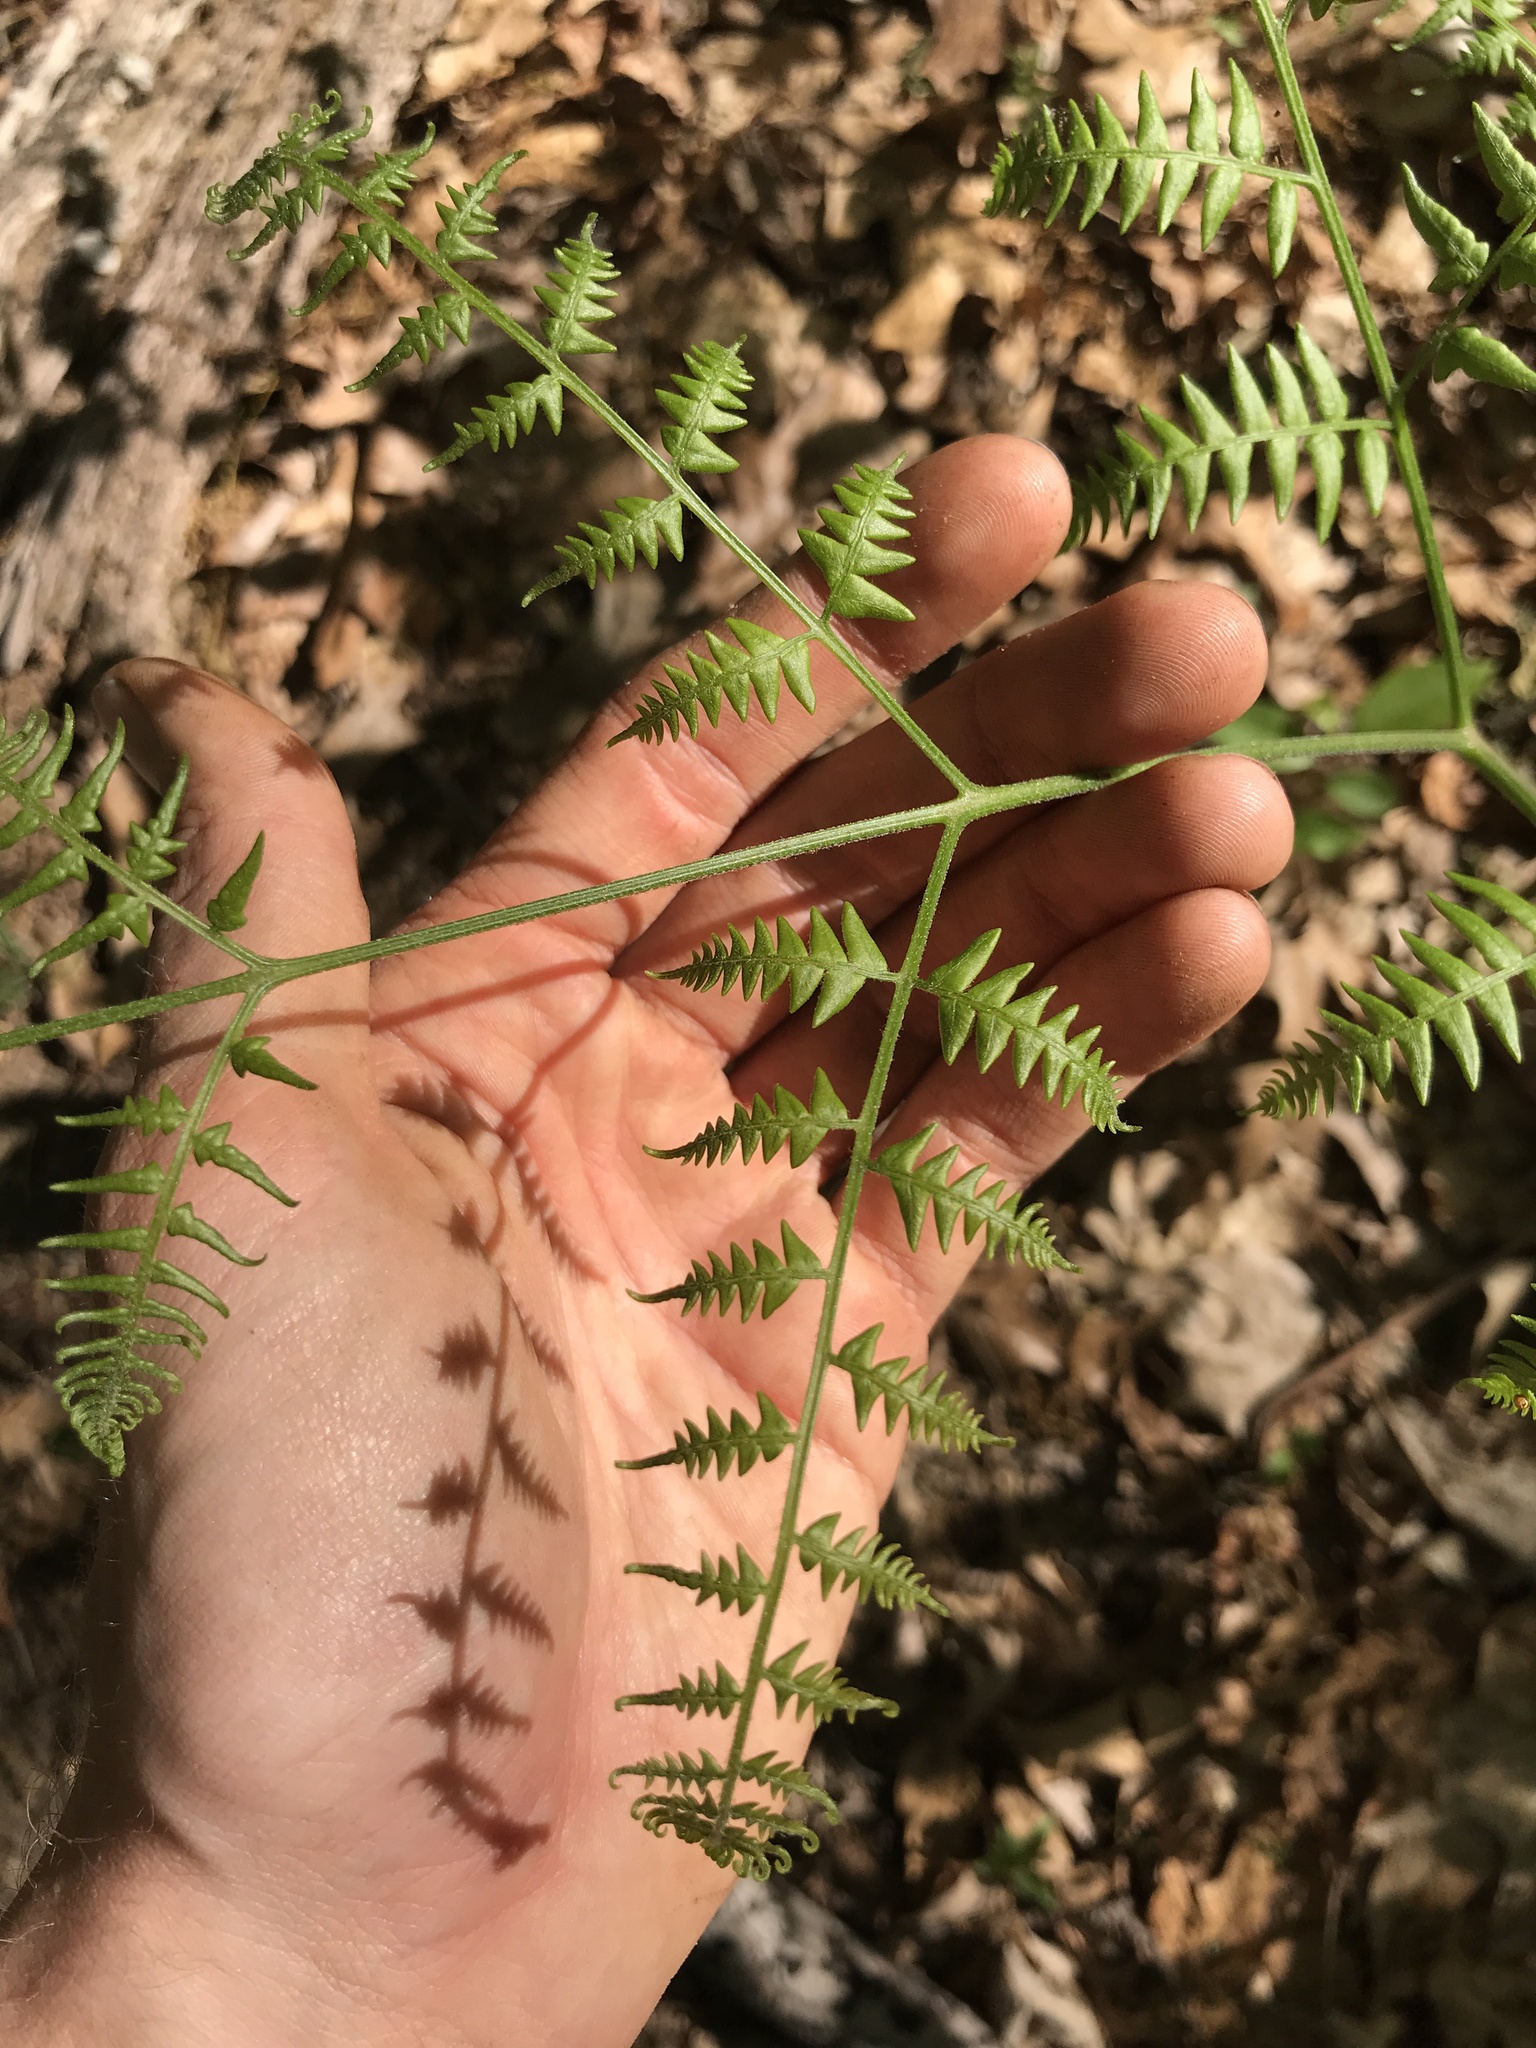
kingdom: Plantae
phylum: Tracheophyta
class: Polypodiopsida
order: Polypodiales
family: Dennstaedtiaceae
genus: Pteridium
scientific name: Pteridium aquilinum
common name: Bracken
